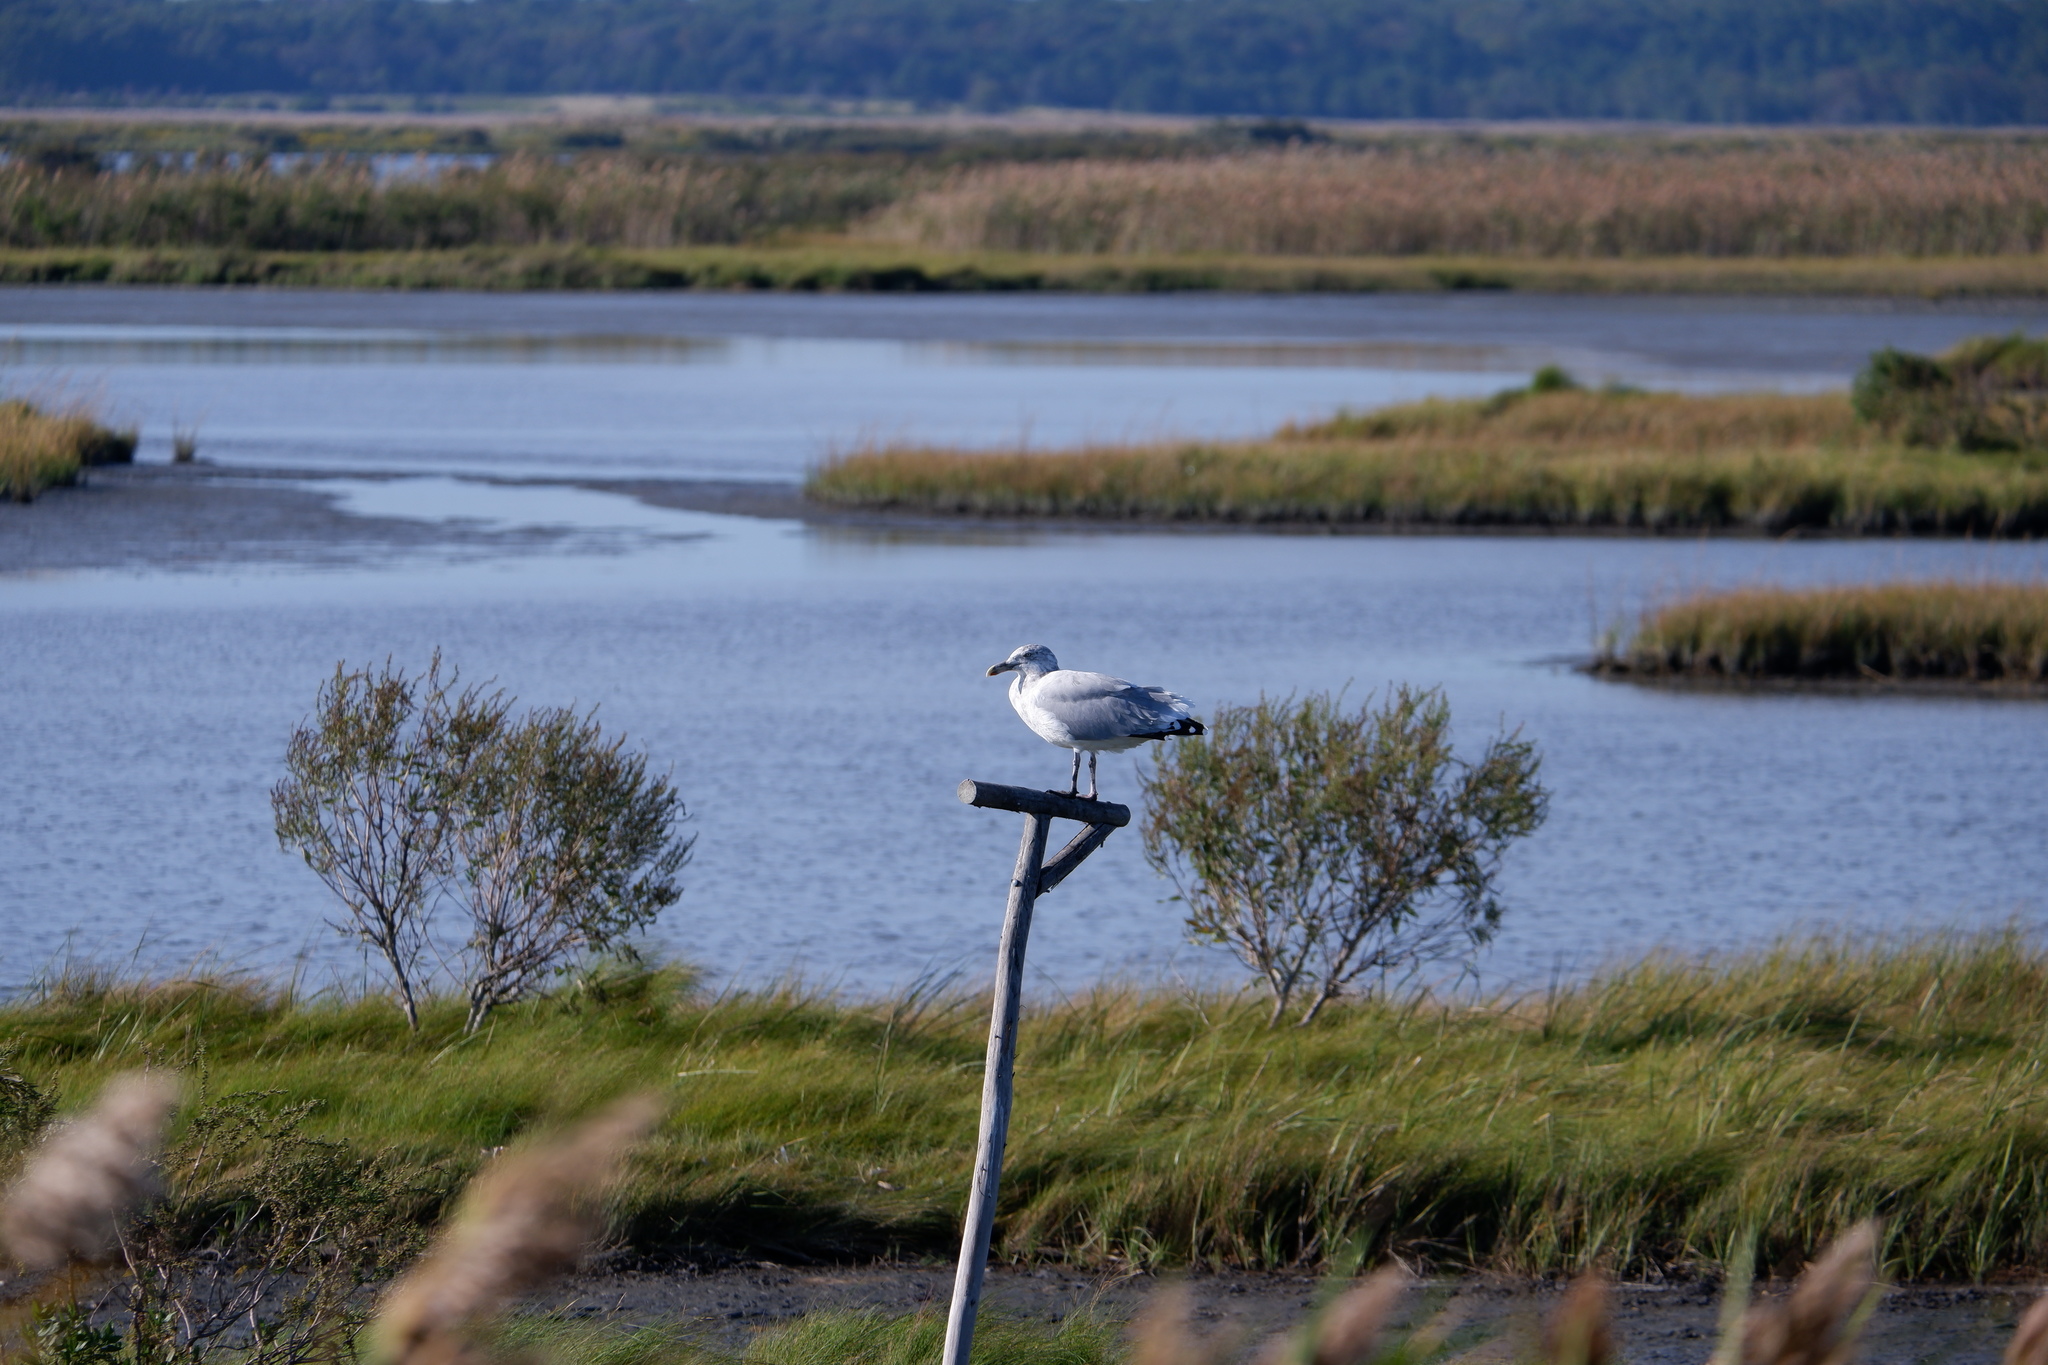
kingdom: Animalia
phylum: Chordata
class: Aves
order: Charadriiformes
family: Laridae
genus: Larus
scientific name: Larus smithsonianus
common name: American herring gull
